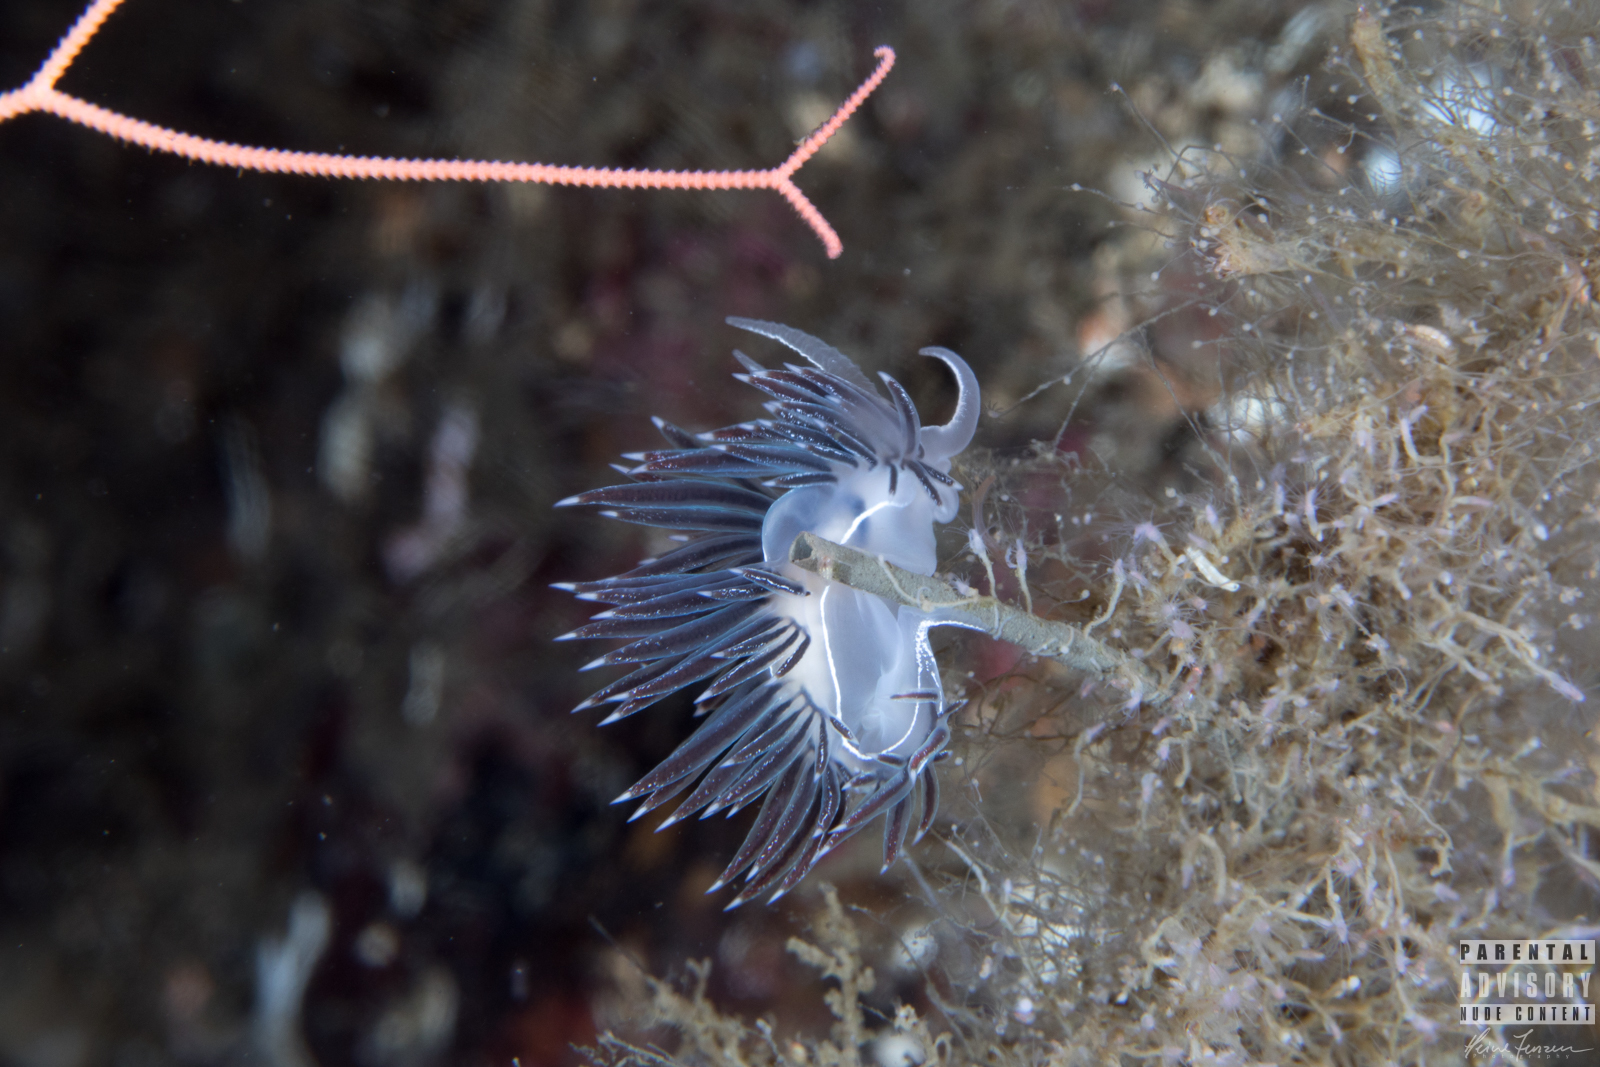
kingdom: Animalia
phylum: Mollusca
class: Gastropoda
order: Nudibranchia
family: Coryphellidae
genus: Coryphella
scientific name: Coryphella chriskaugei
